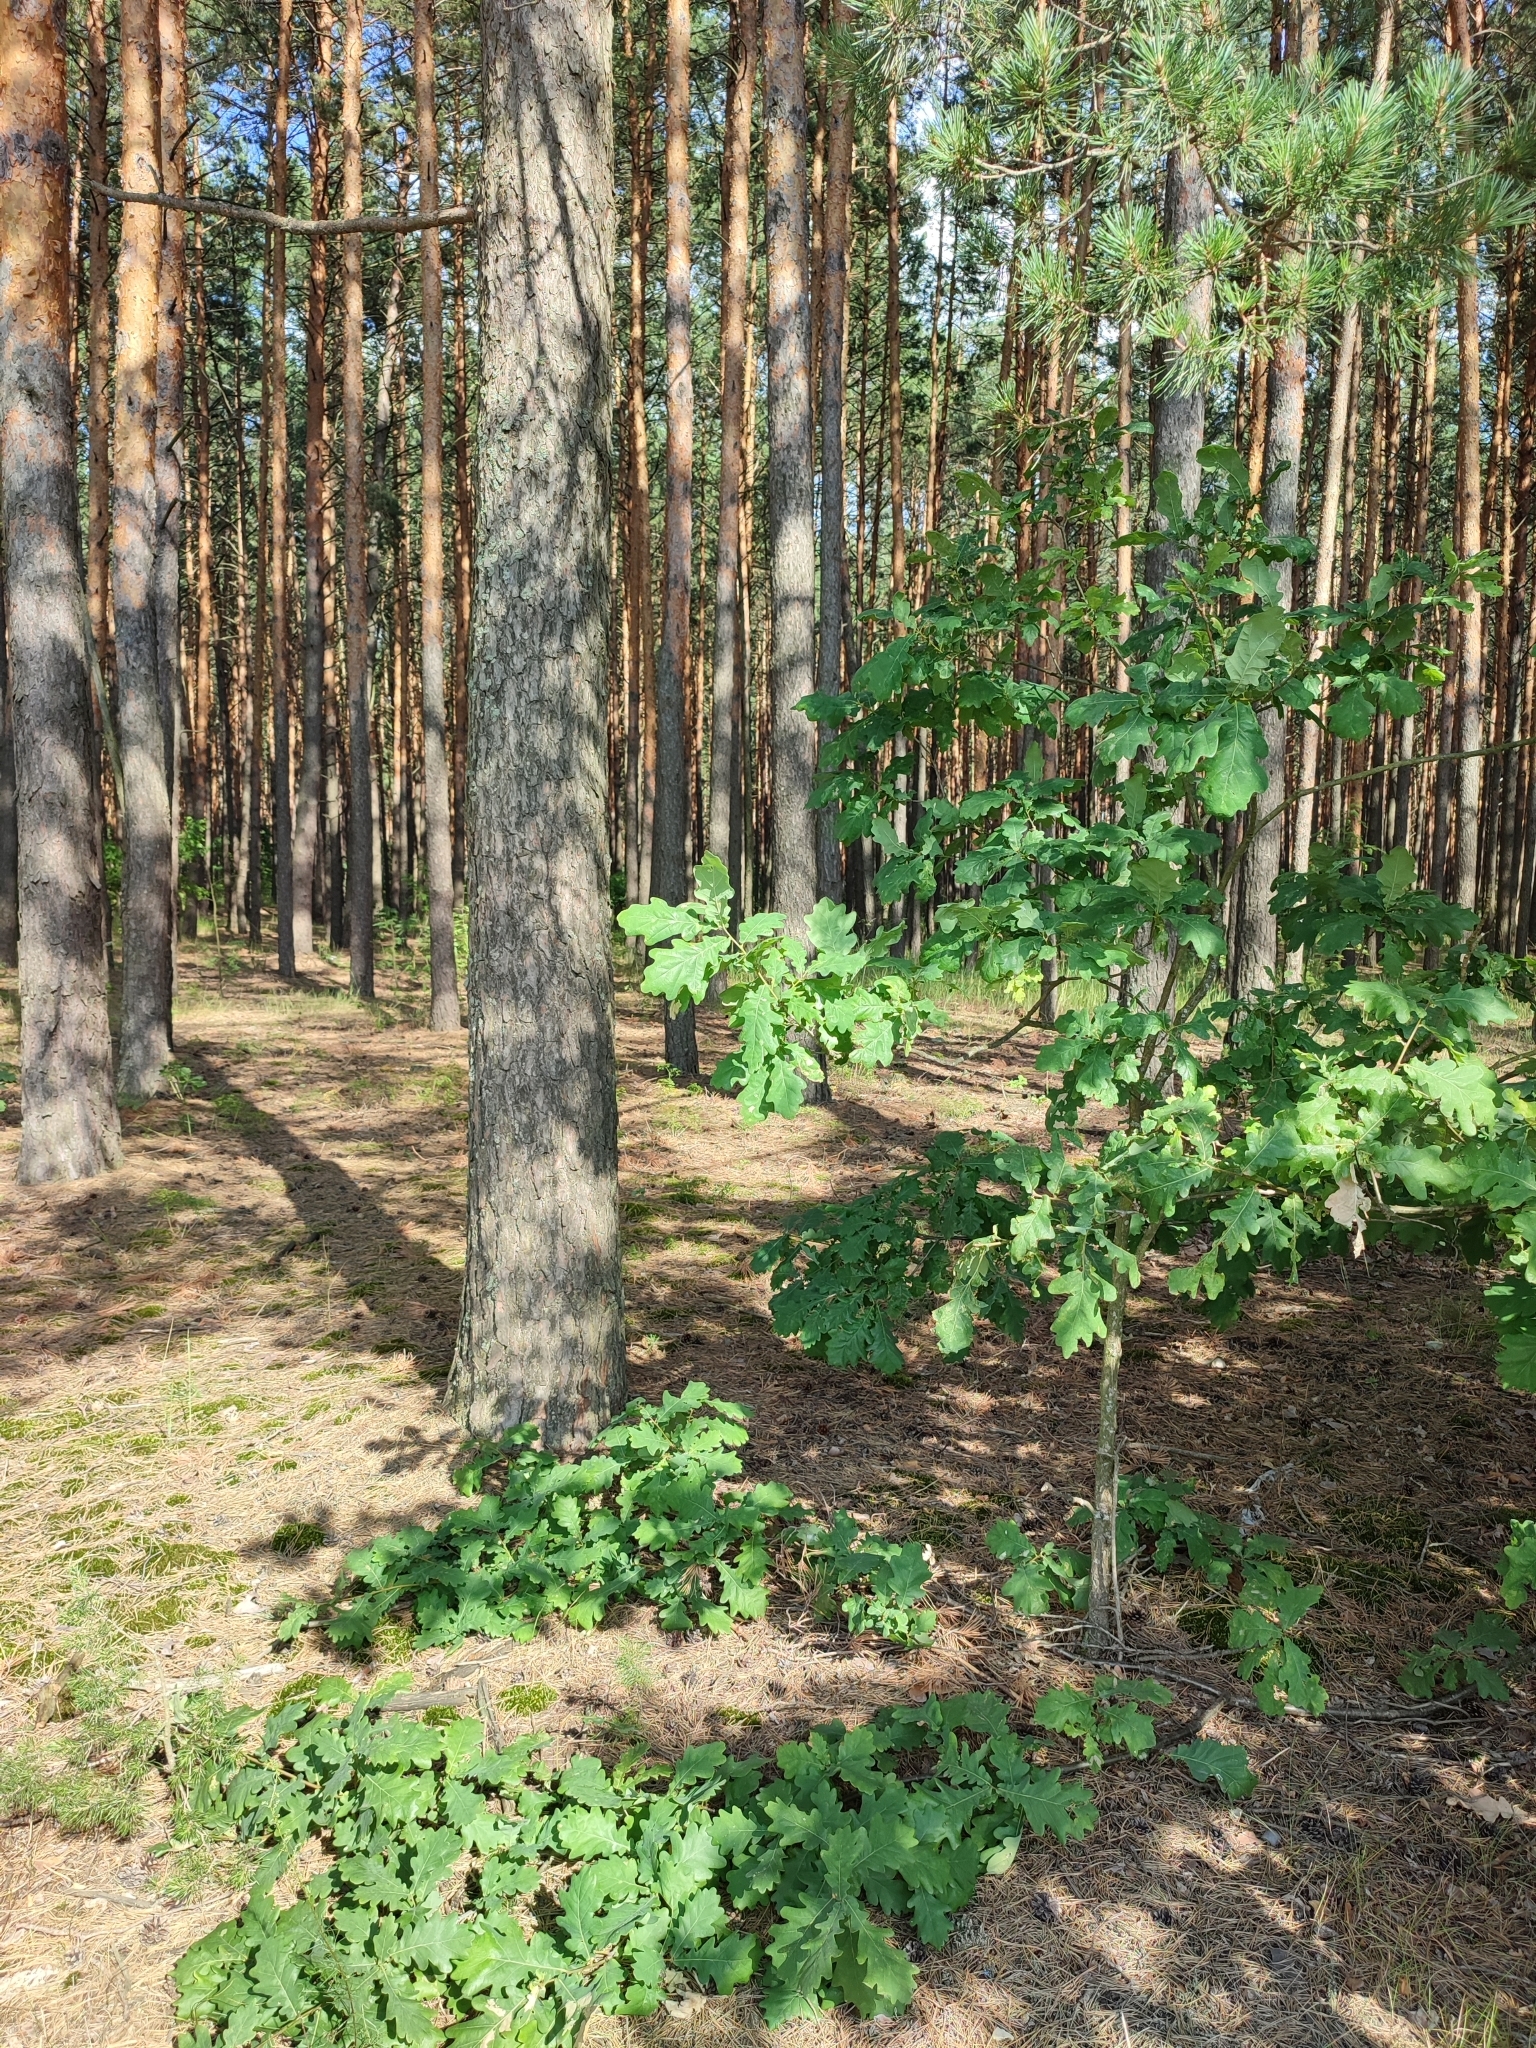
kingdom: Plantae
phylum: Tracheophyta
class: Magnoliopsida
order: Fagales
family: Fagaceae
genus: Quercus
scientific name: Quercus robur
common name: Pedunculate oak
